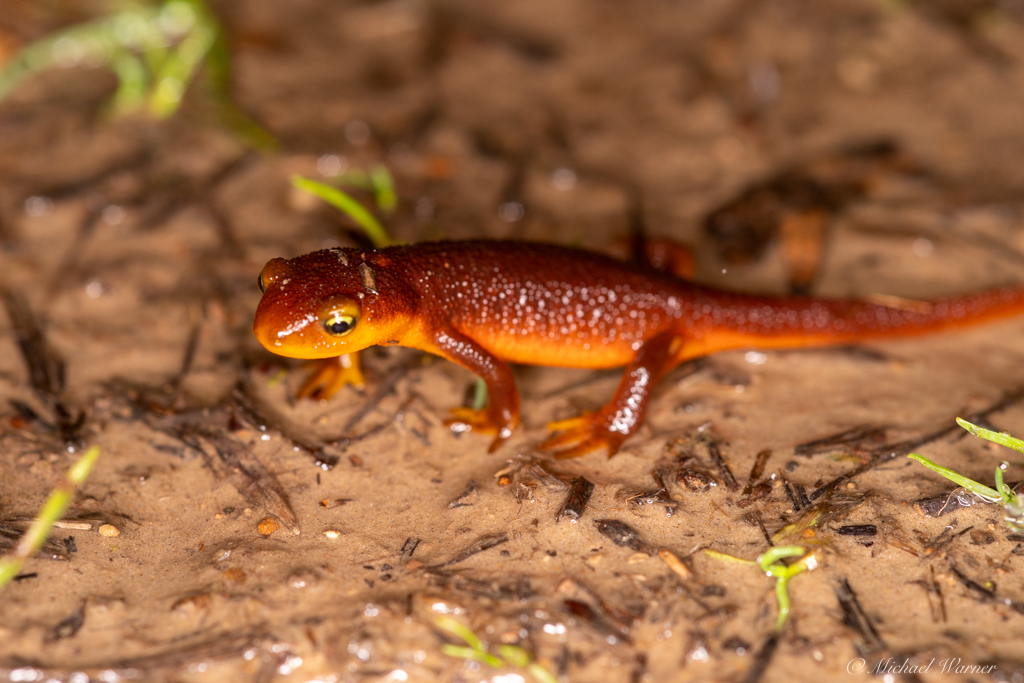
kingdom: Animalia
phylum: Chordata
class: Amphibia
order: Caudata
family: Salamandridae
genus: Taricha
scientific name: Taricha torosa
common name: California newt
